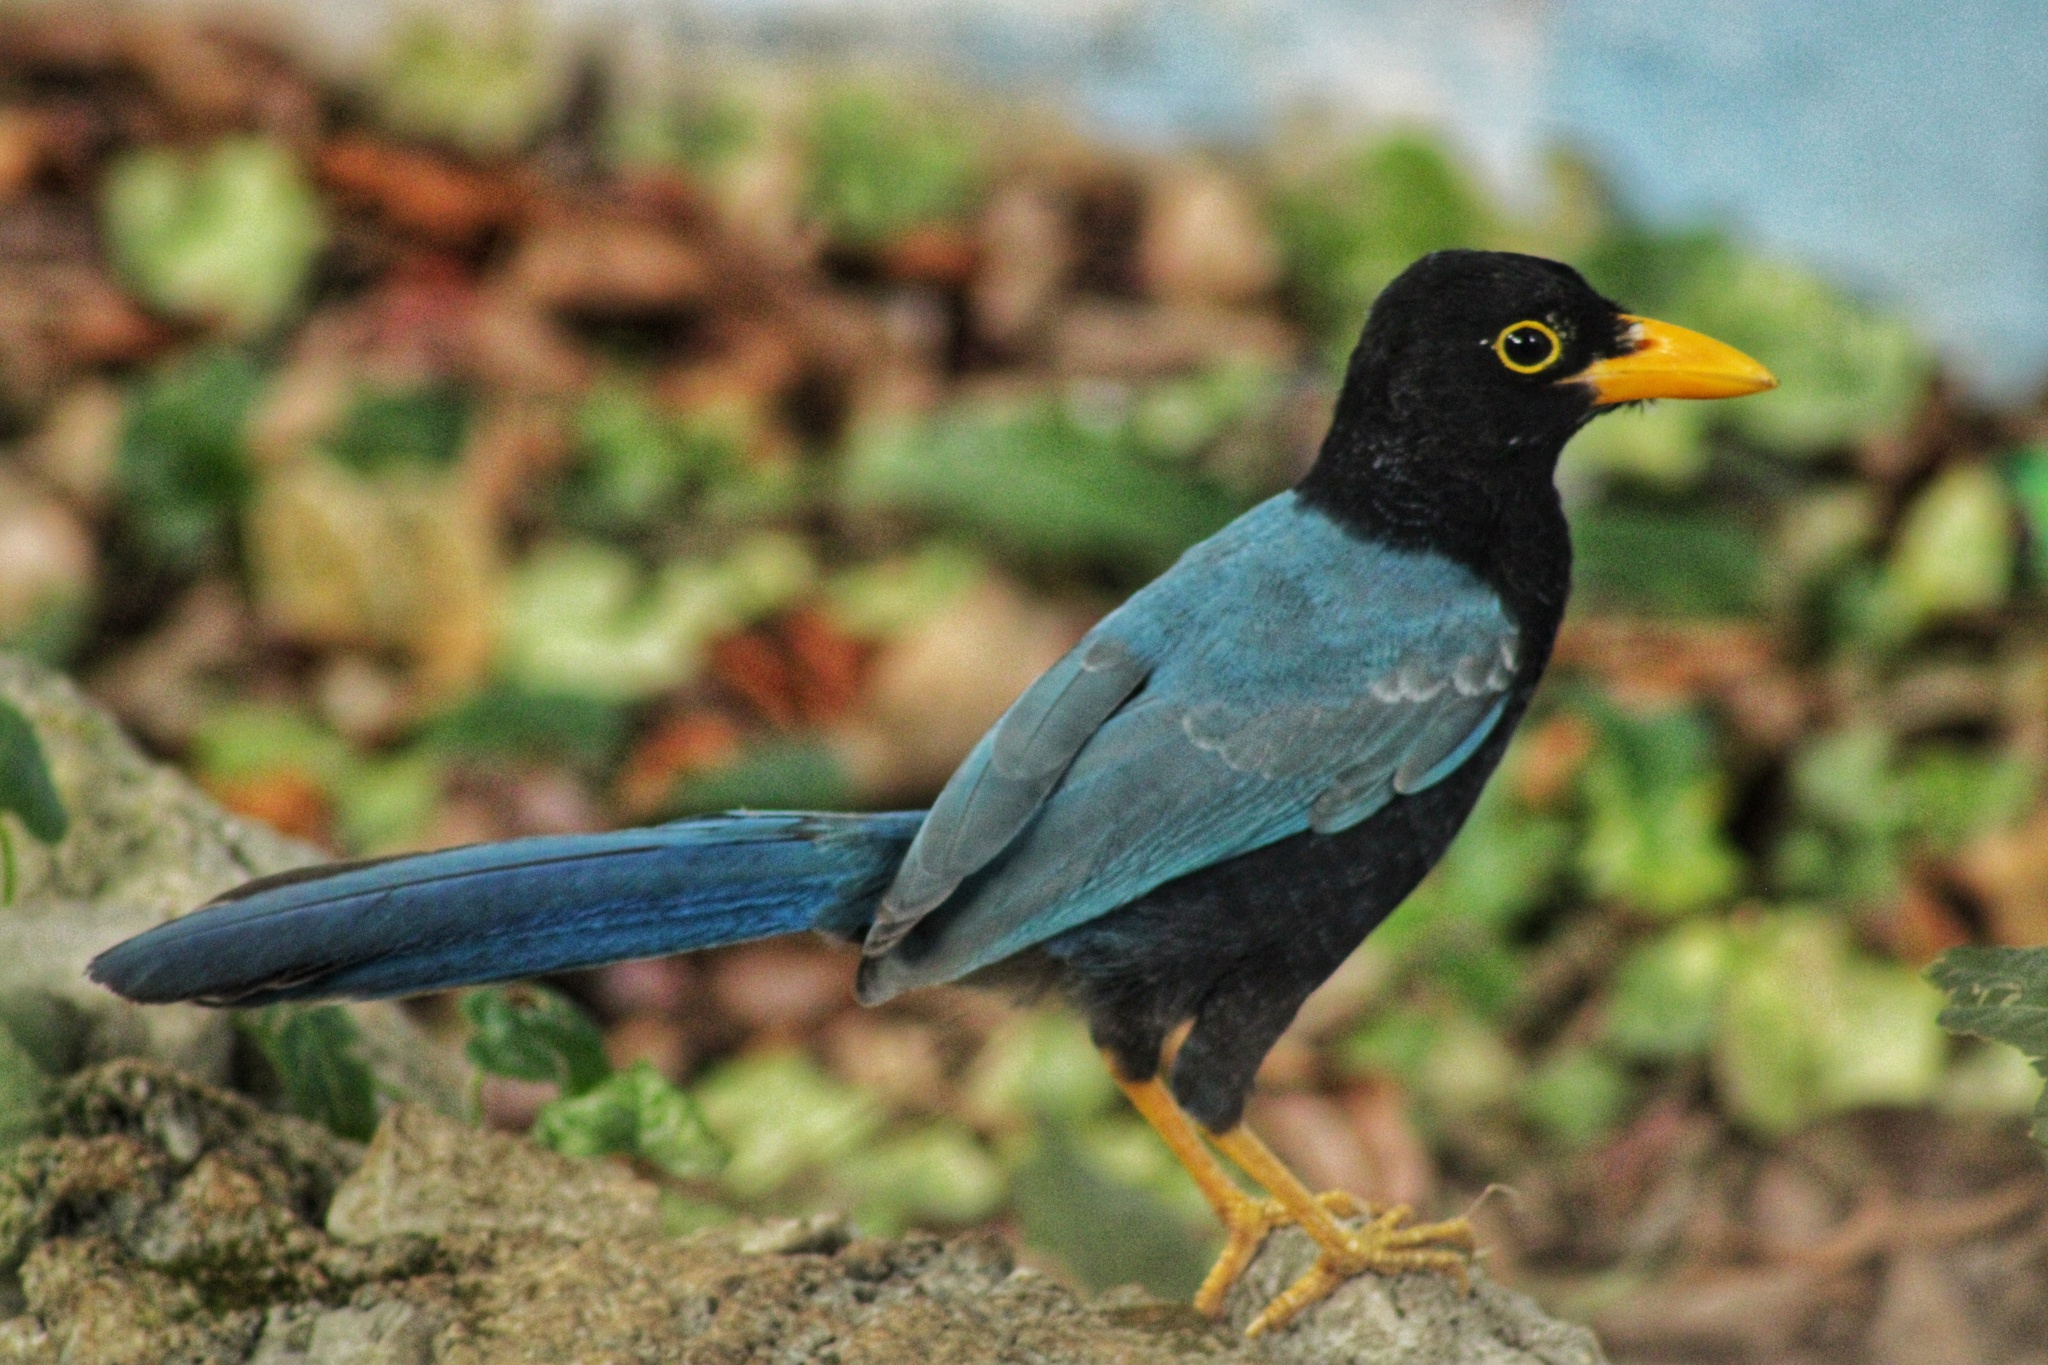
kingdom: Animalia
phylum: Chordata
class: Aves
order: Passeriformes
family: Corvidae
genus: Cyanocorax
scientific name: Cyanocorax yucatanicus
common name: Yucatan jay
